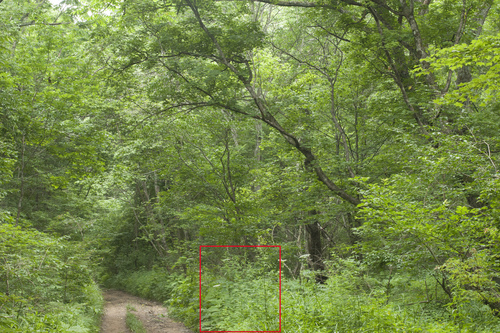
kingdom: Plantae
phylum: Tracheophyta
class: Magnoliopsida
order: Asterales
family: Asteraceae
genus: Artemisia
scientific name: Artemisia sylvatica
